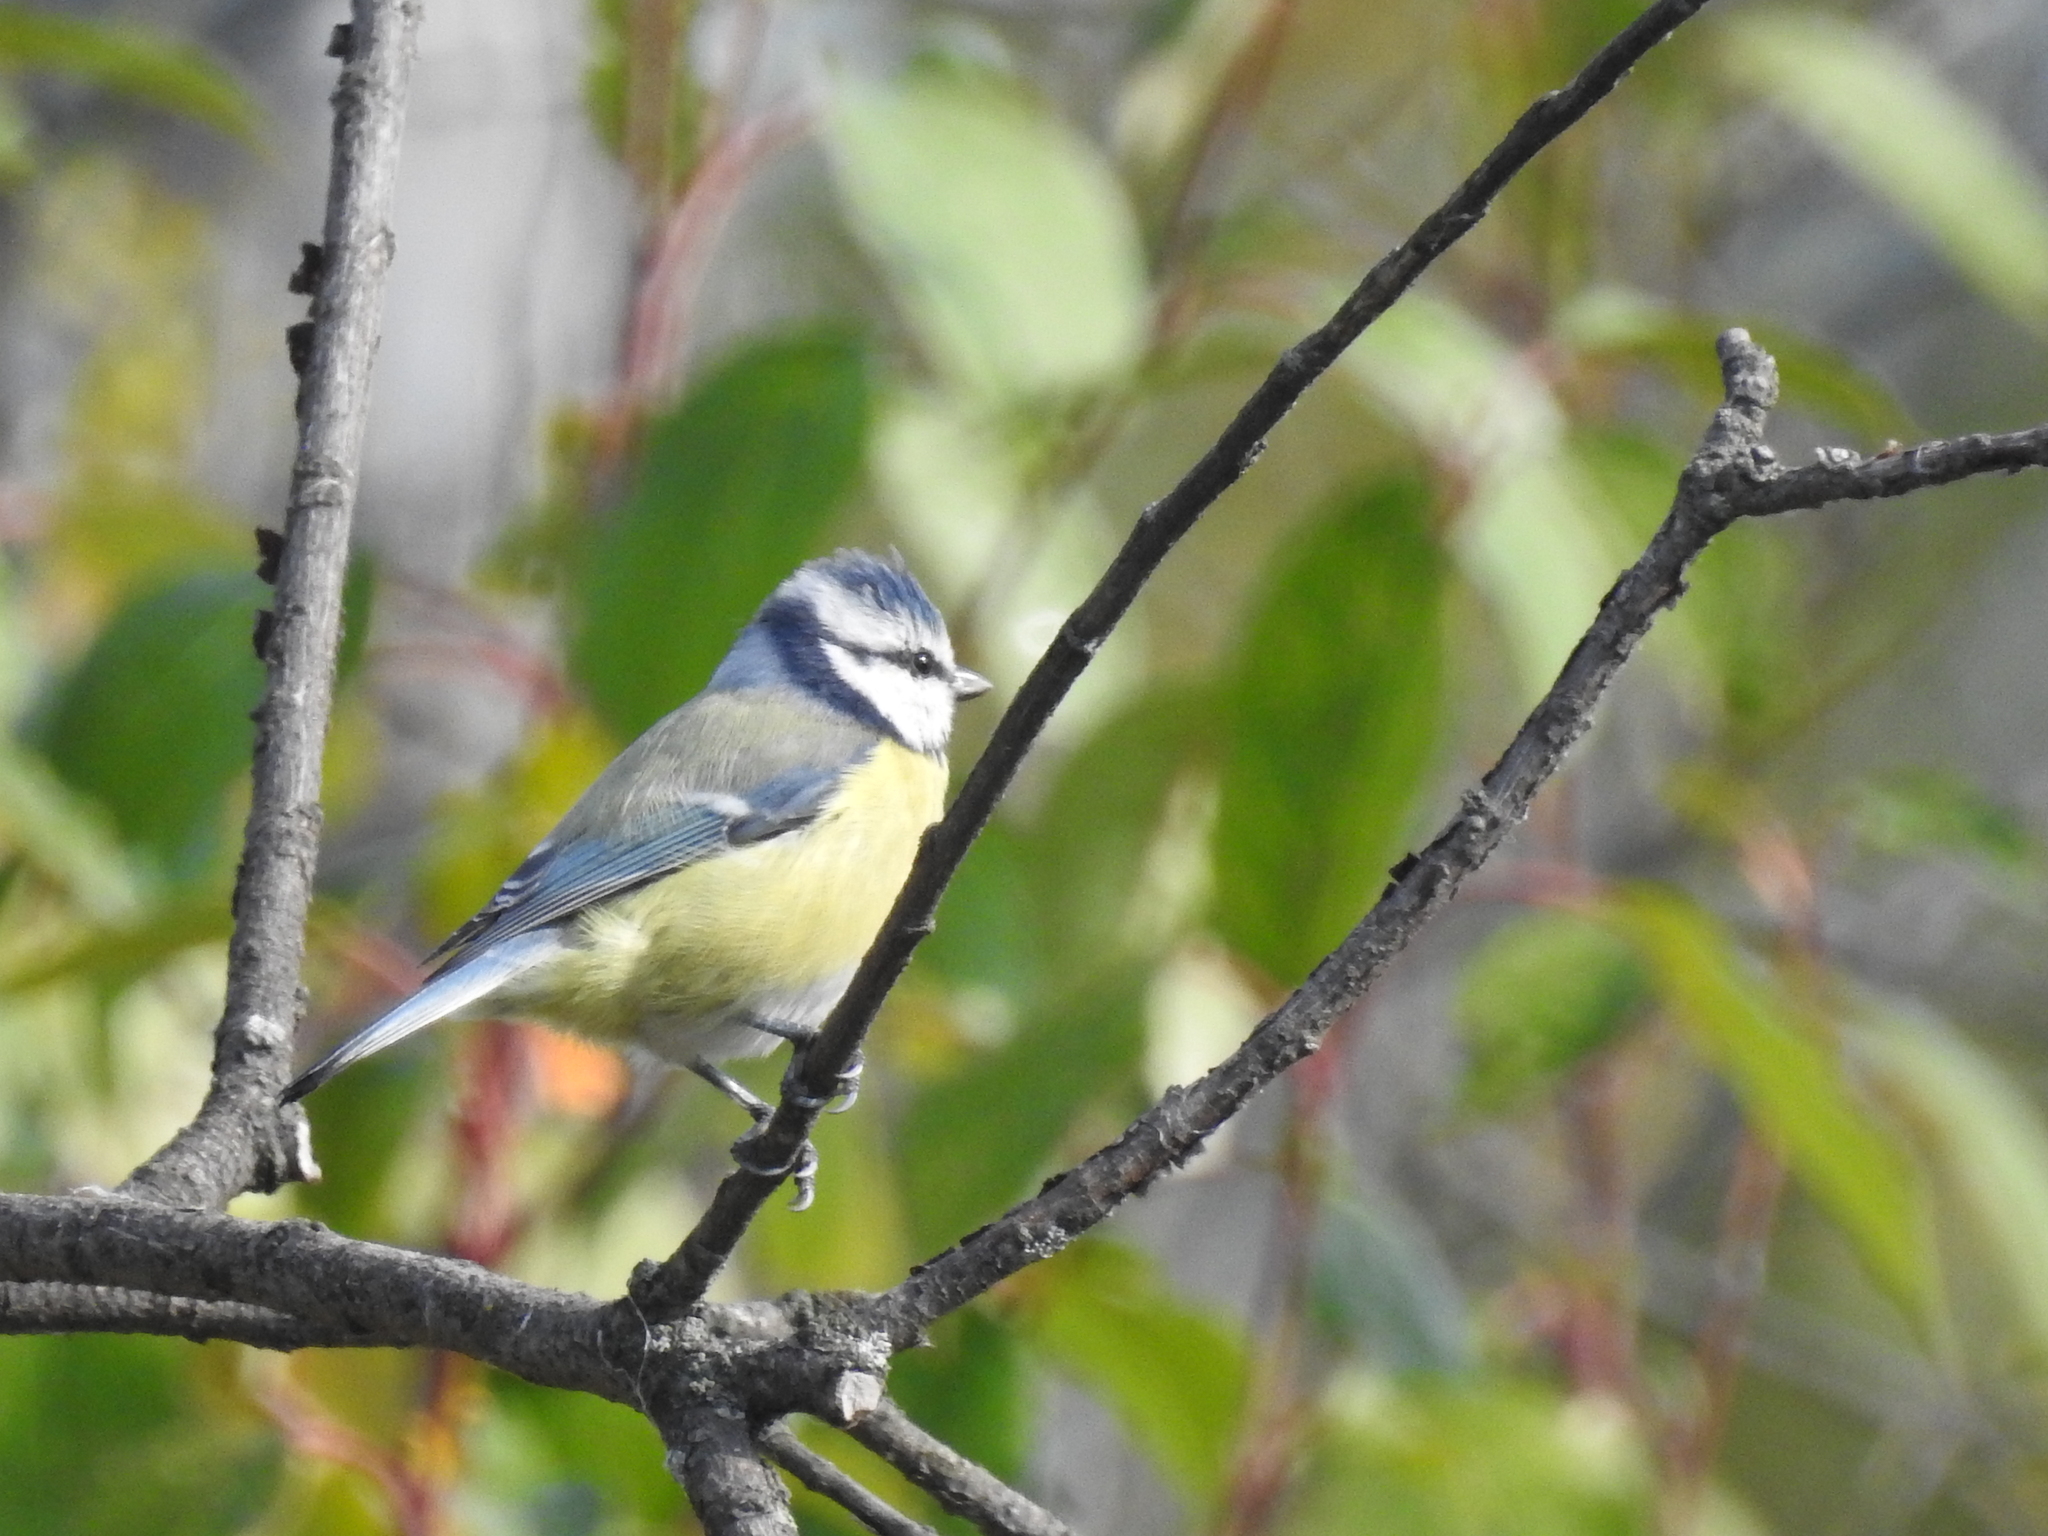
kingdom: Animalia
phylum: Chordata
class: Aves
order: Passeriformes
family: Paridae
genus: Cyanistes
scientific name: Cyanistes caeruleus
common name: Eurasian blue tit
